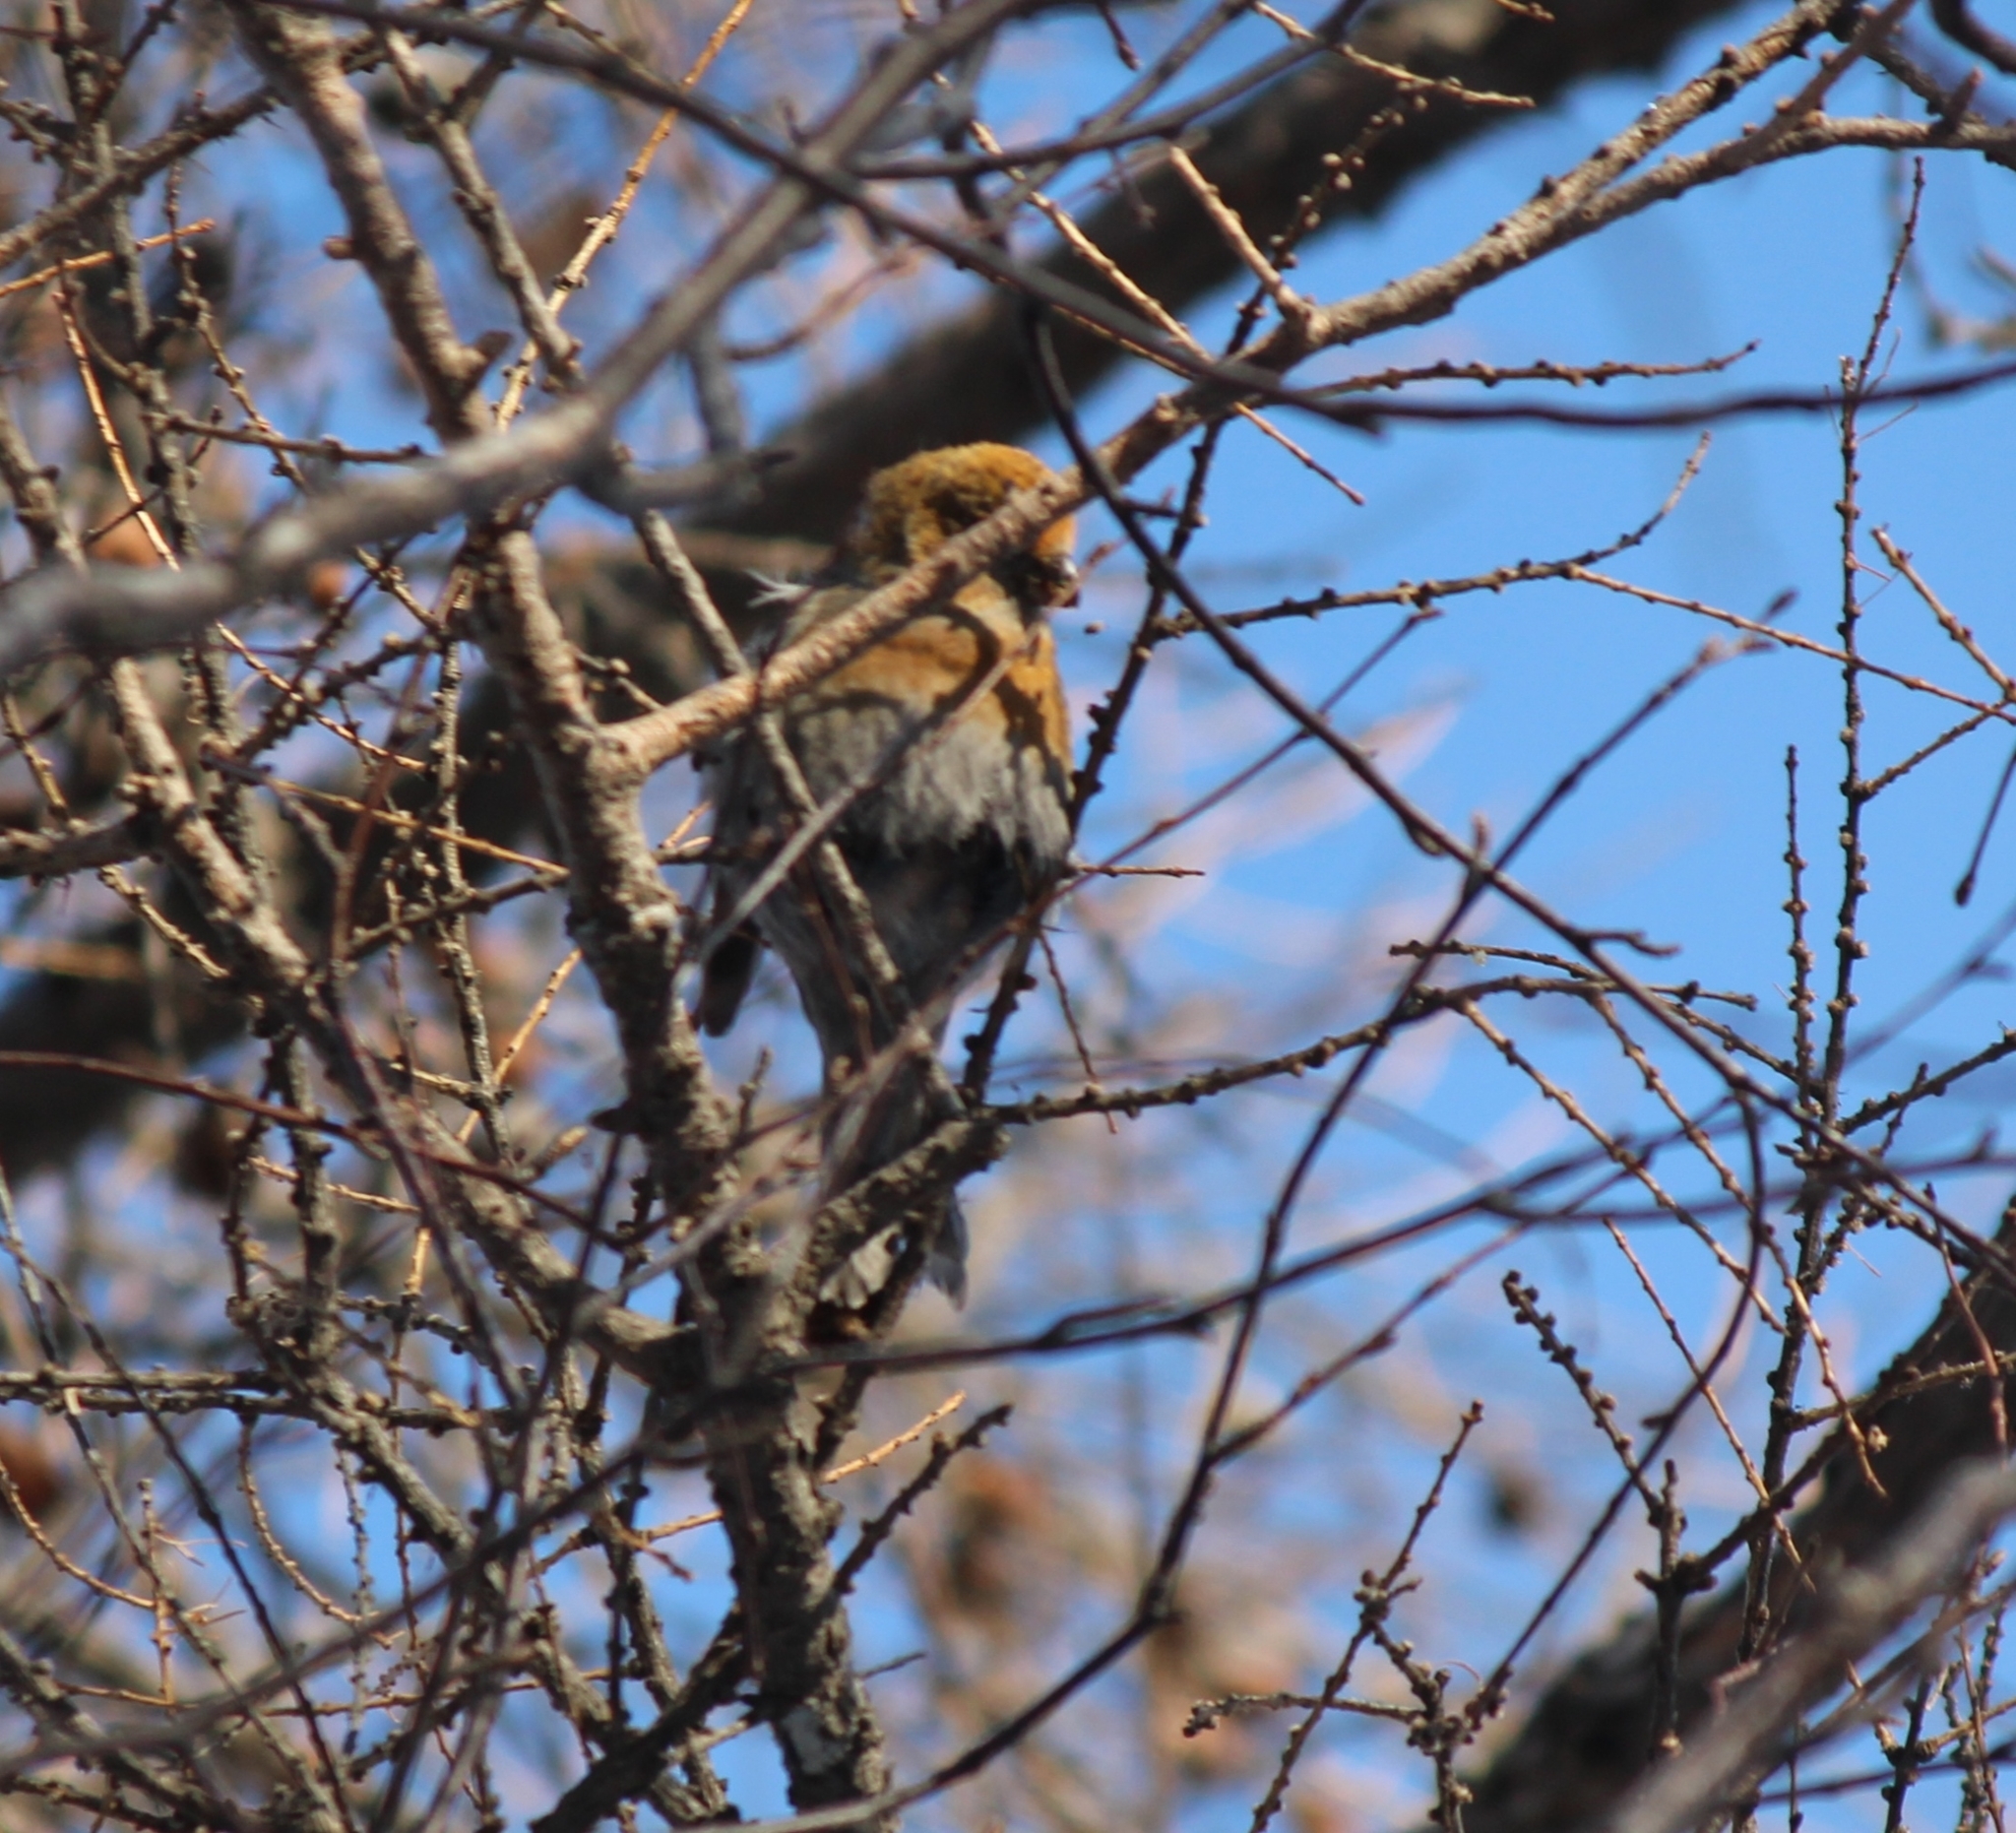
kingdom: Animalia
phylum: Chordata
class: Aves
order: Passeriformes
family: Fringillidae
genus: Pinicola
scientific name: Pinicola enucleator
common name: Pine grosbeak
